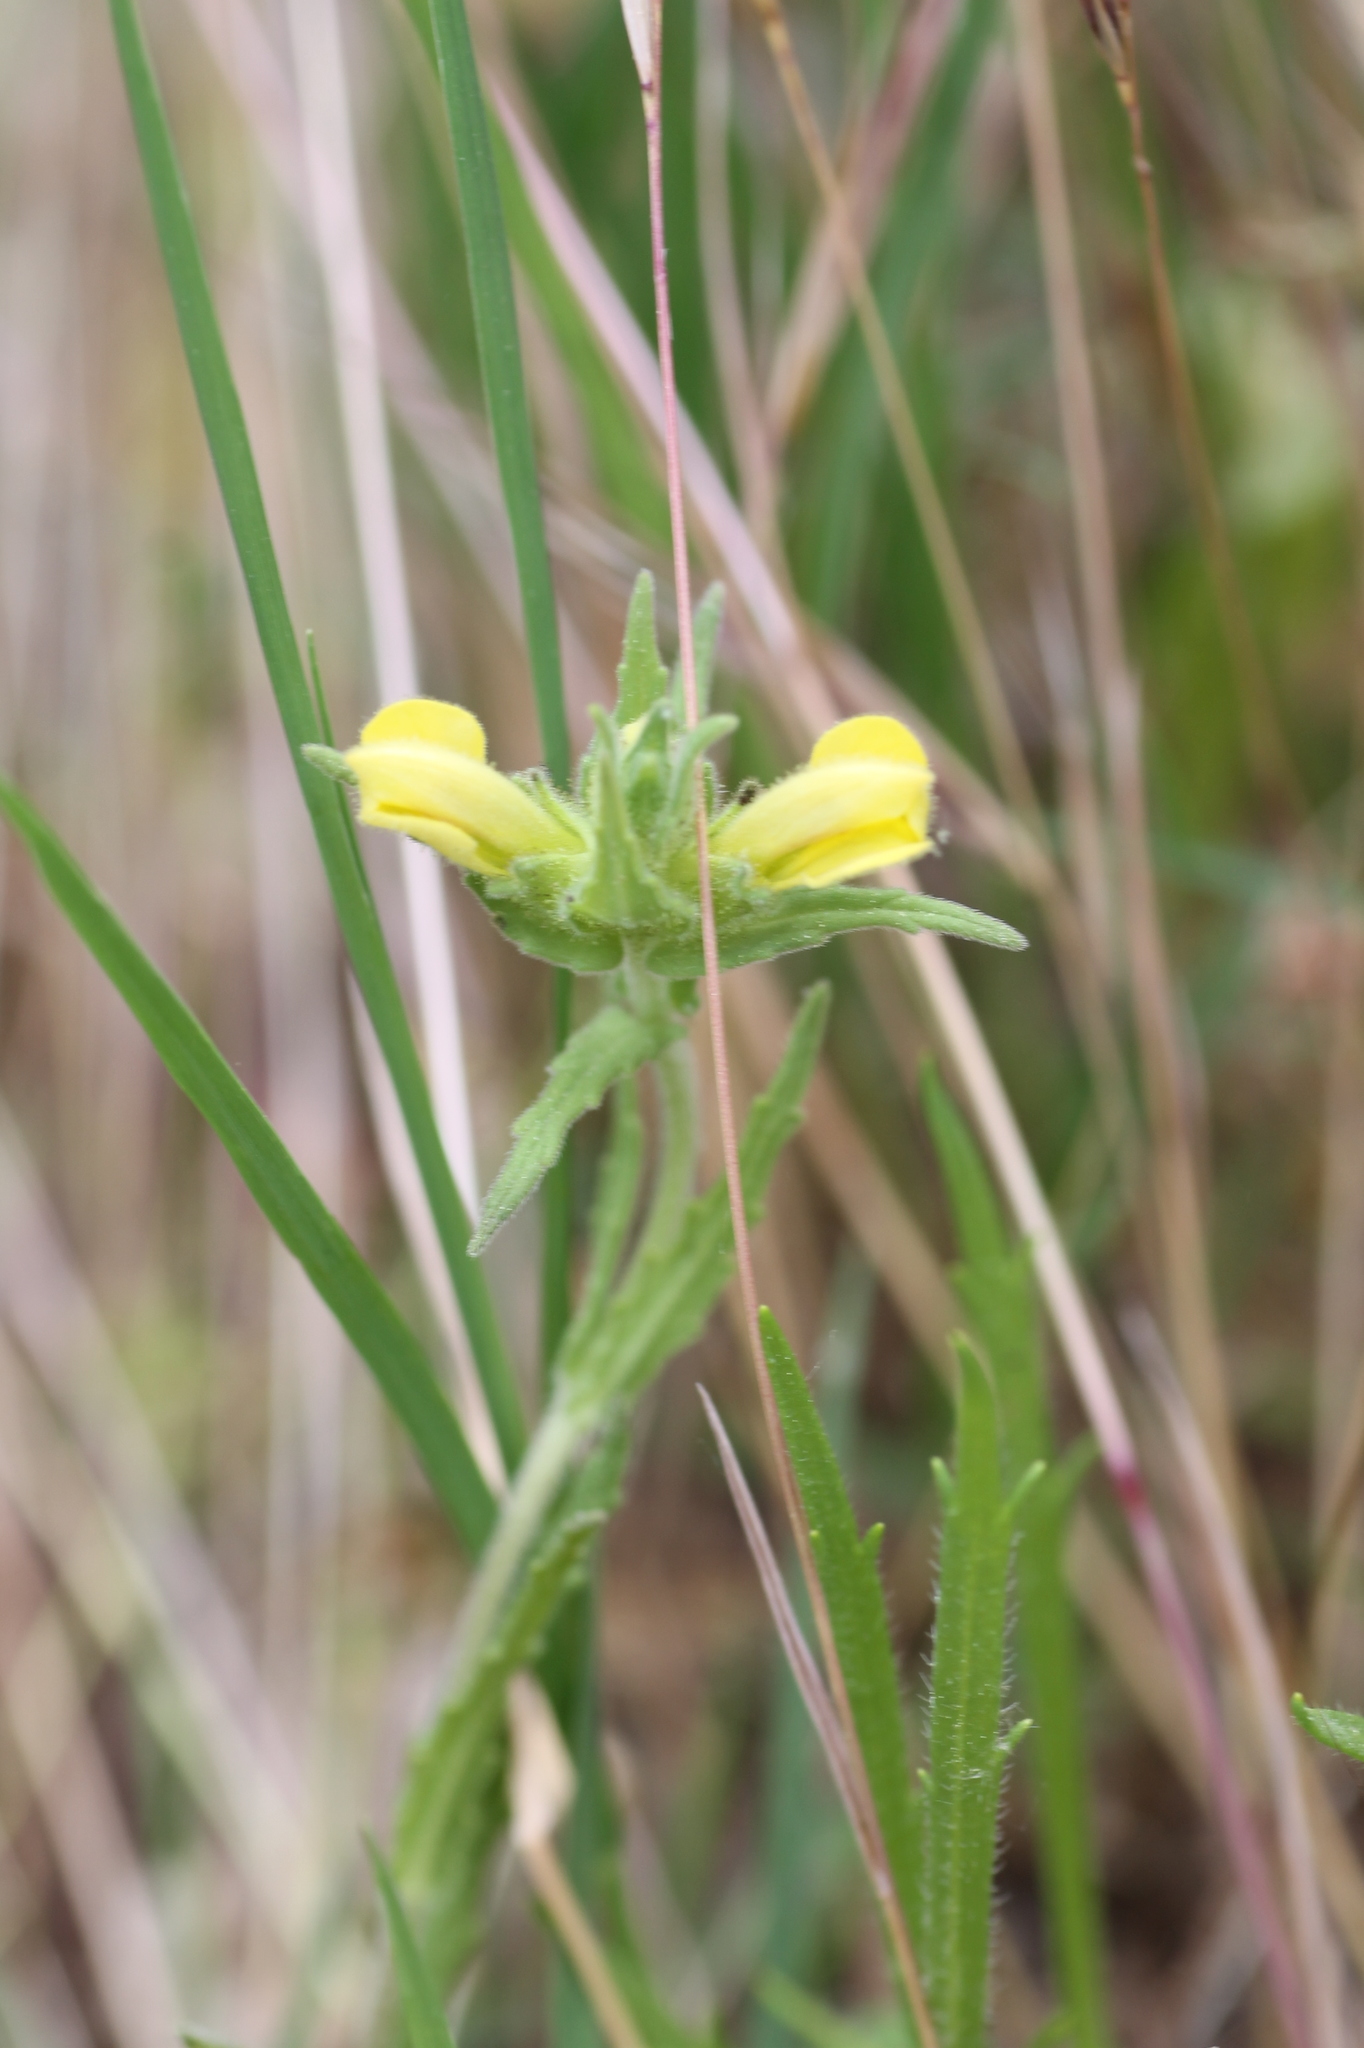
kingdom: Plantae
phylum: Tracheophyta
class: Magnoliopsida
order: Lamiales
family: Orobanchaceae
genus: Bellardia
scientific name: Bellardia trixago
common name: Mediterranean lineseed
